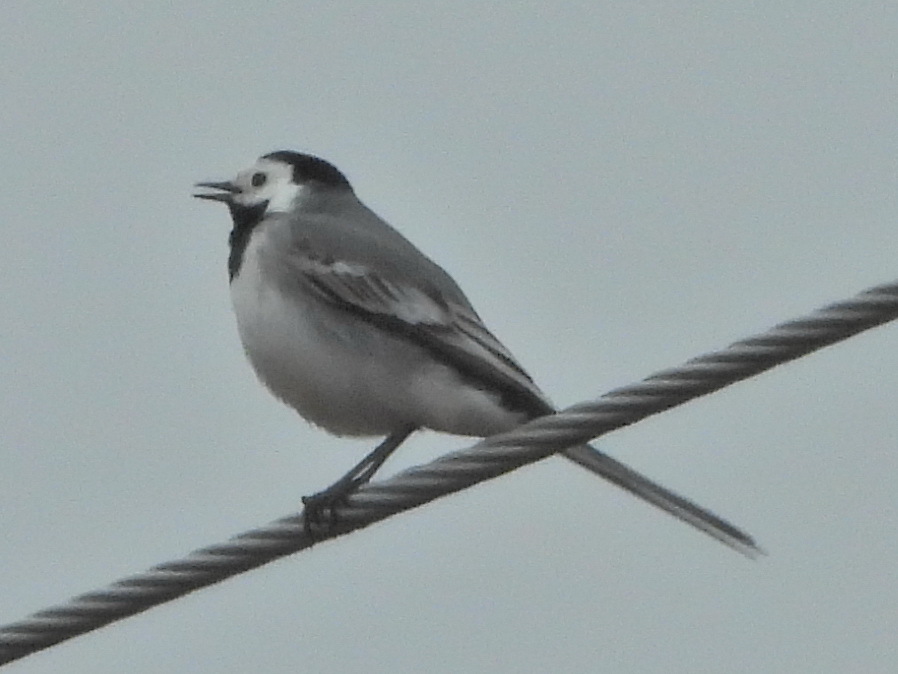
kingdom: Animalia
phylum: Chordata
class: Aves
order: Passeriformes
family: Motacillidae
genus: Motacilla
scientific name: Motacilla alba
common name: White wagtail
